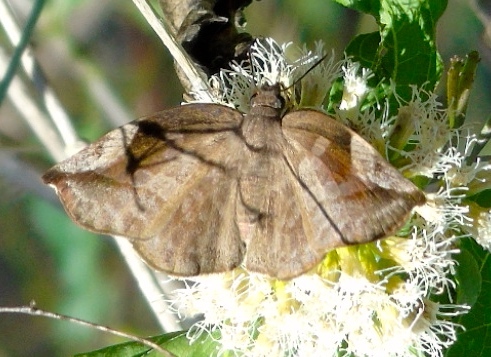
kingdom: Animalia
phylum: Arthropoda
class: Insecta
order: Lepidoptera
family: Hesperiidae
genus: Achlyodes
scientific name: Achlyodes thraso
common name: Sickle-winged skipper
